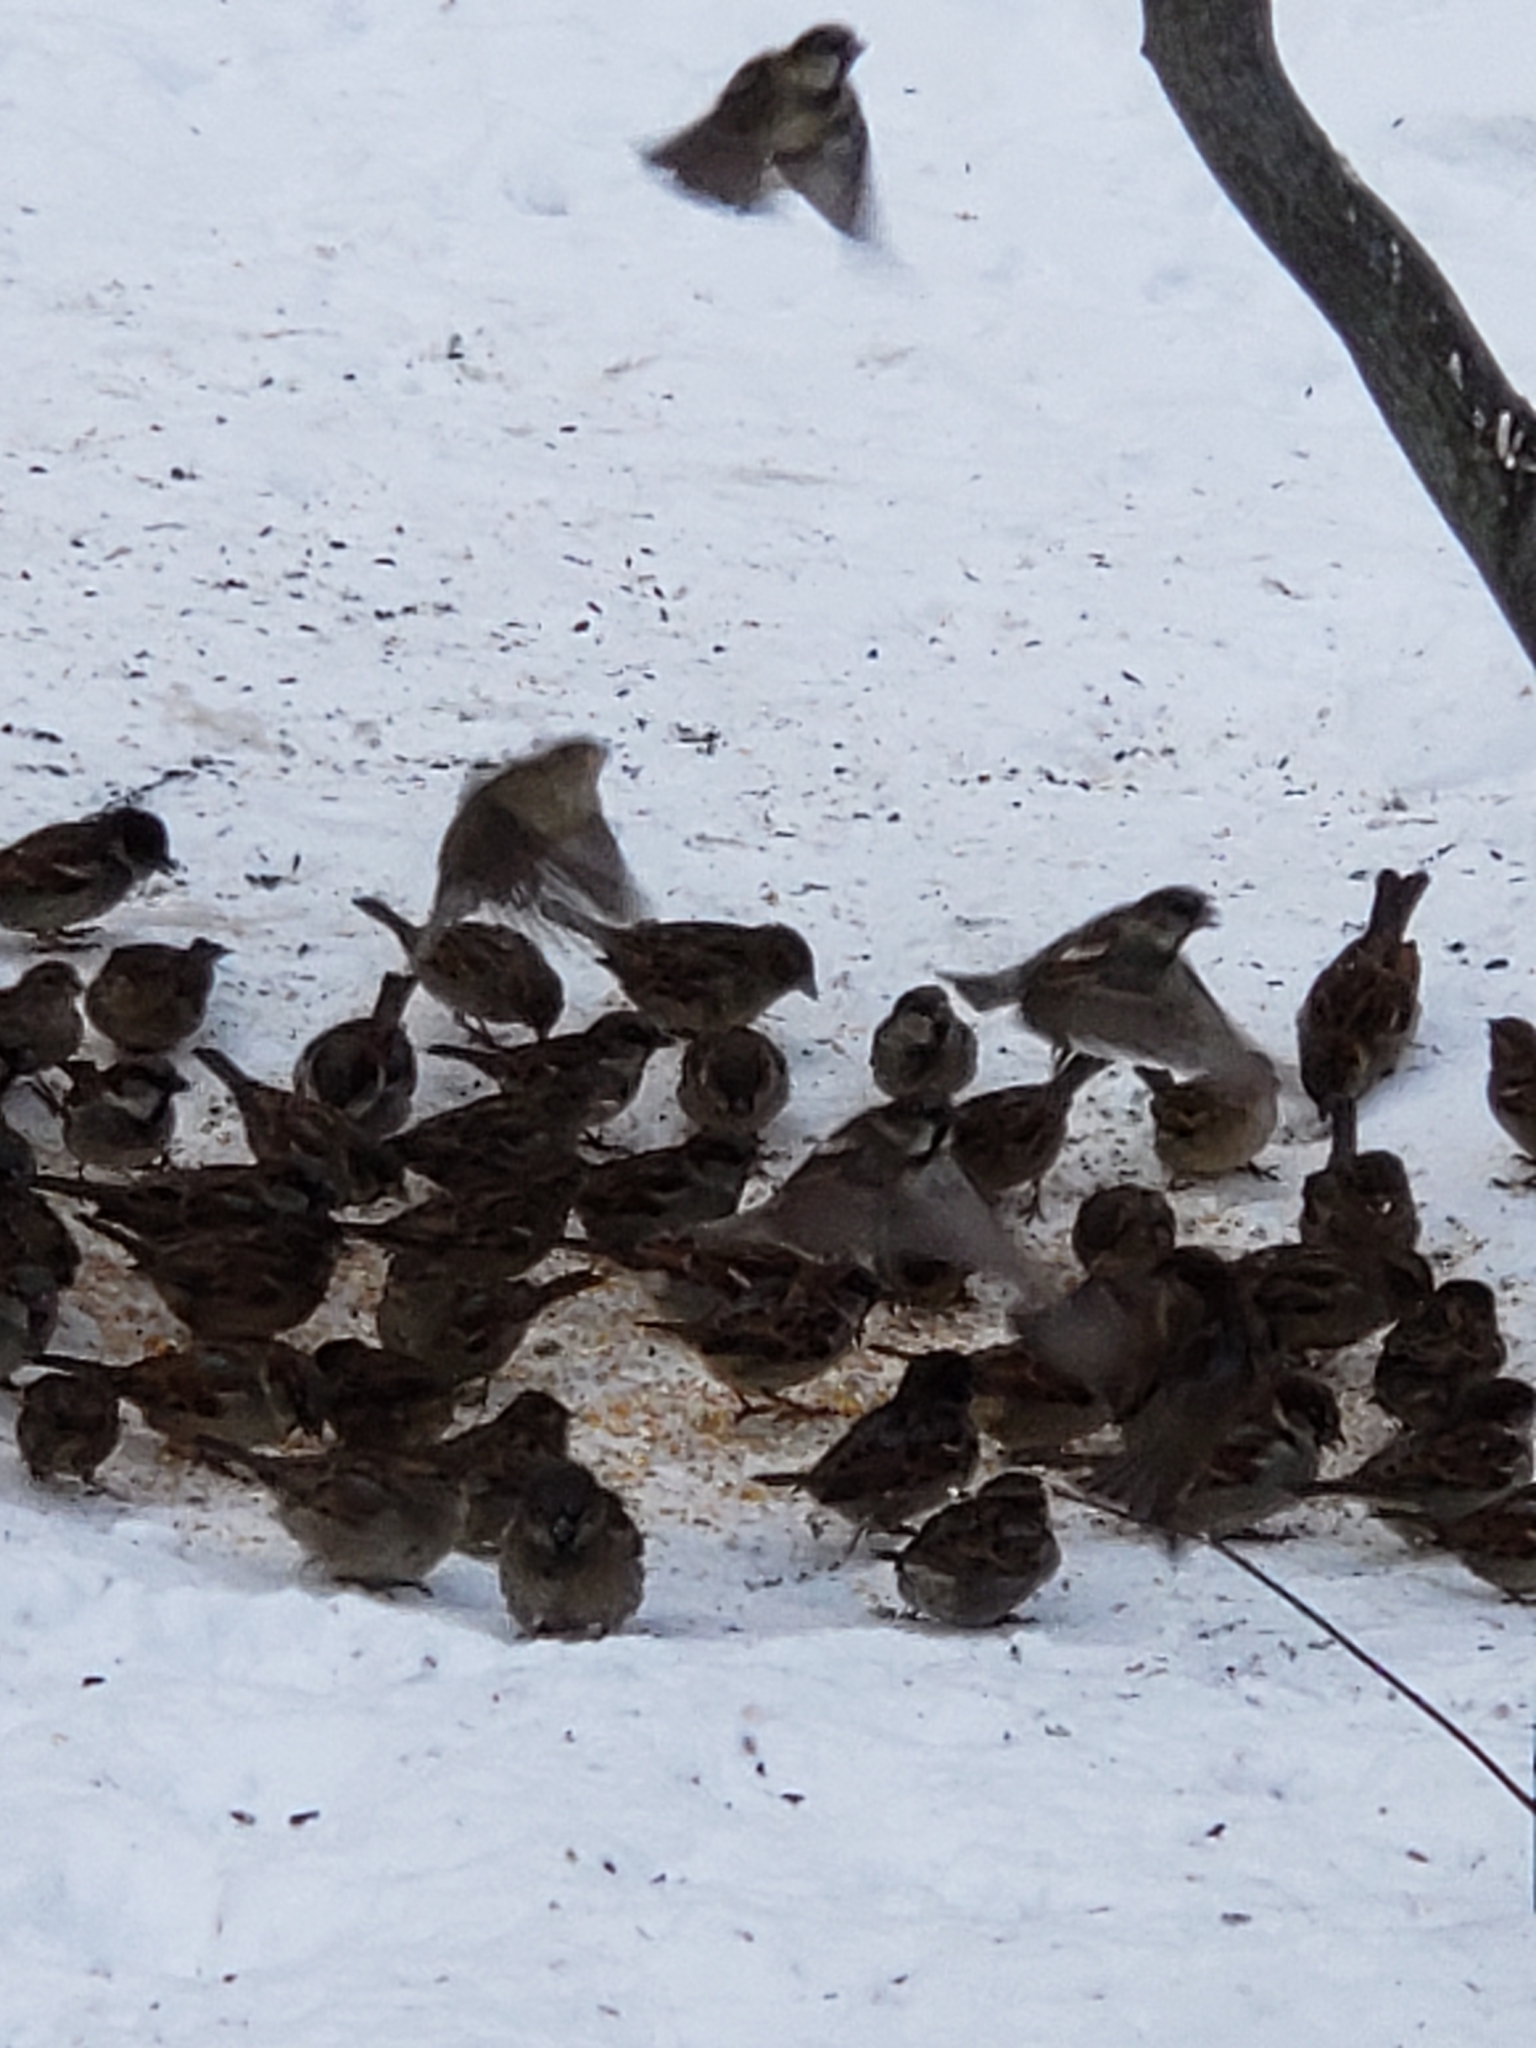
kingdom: Animalia
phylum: Chordata
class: Aves
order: Passeriformes
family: Passeridae
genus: Passer
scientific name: Passer domesticus
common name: House sparrow
